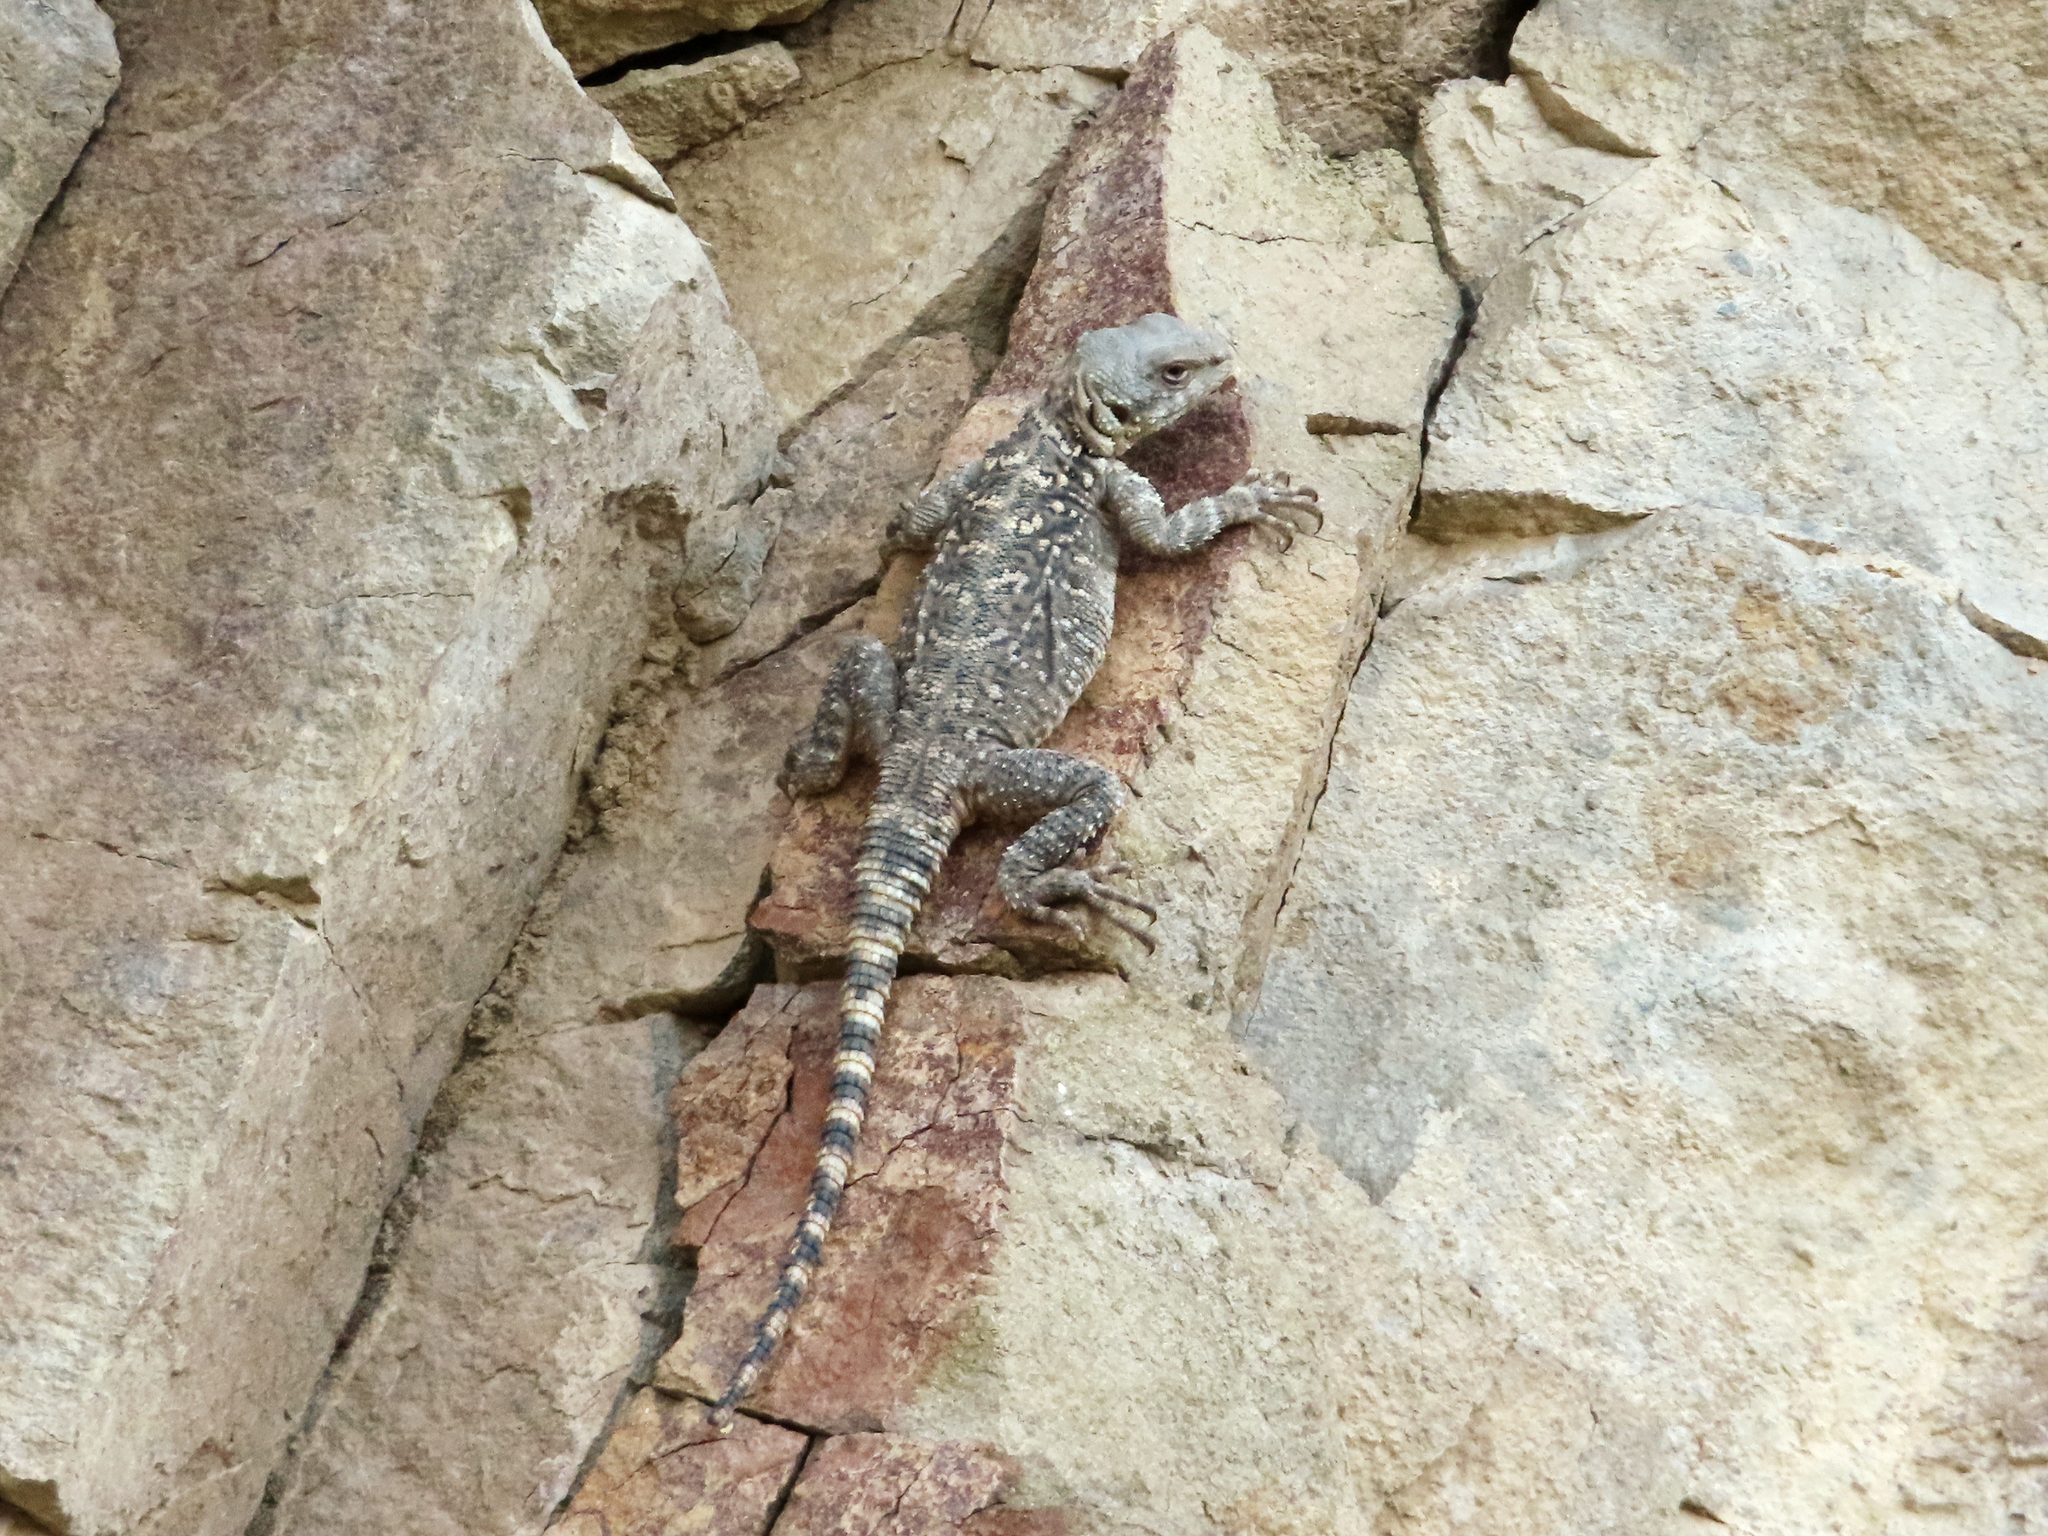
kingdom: Animalia
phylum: Chordata
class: Squamata
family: Agamidae
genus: Paralaudakia
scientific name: Paralaudakia caucasia
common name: Caucasian agama
